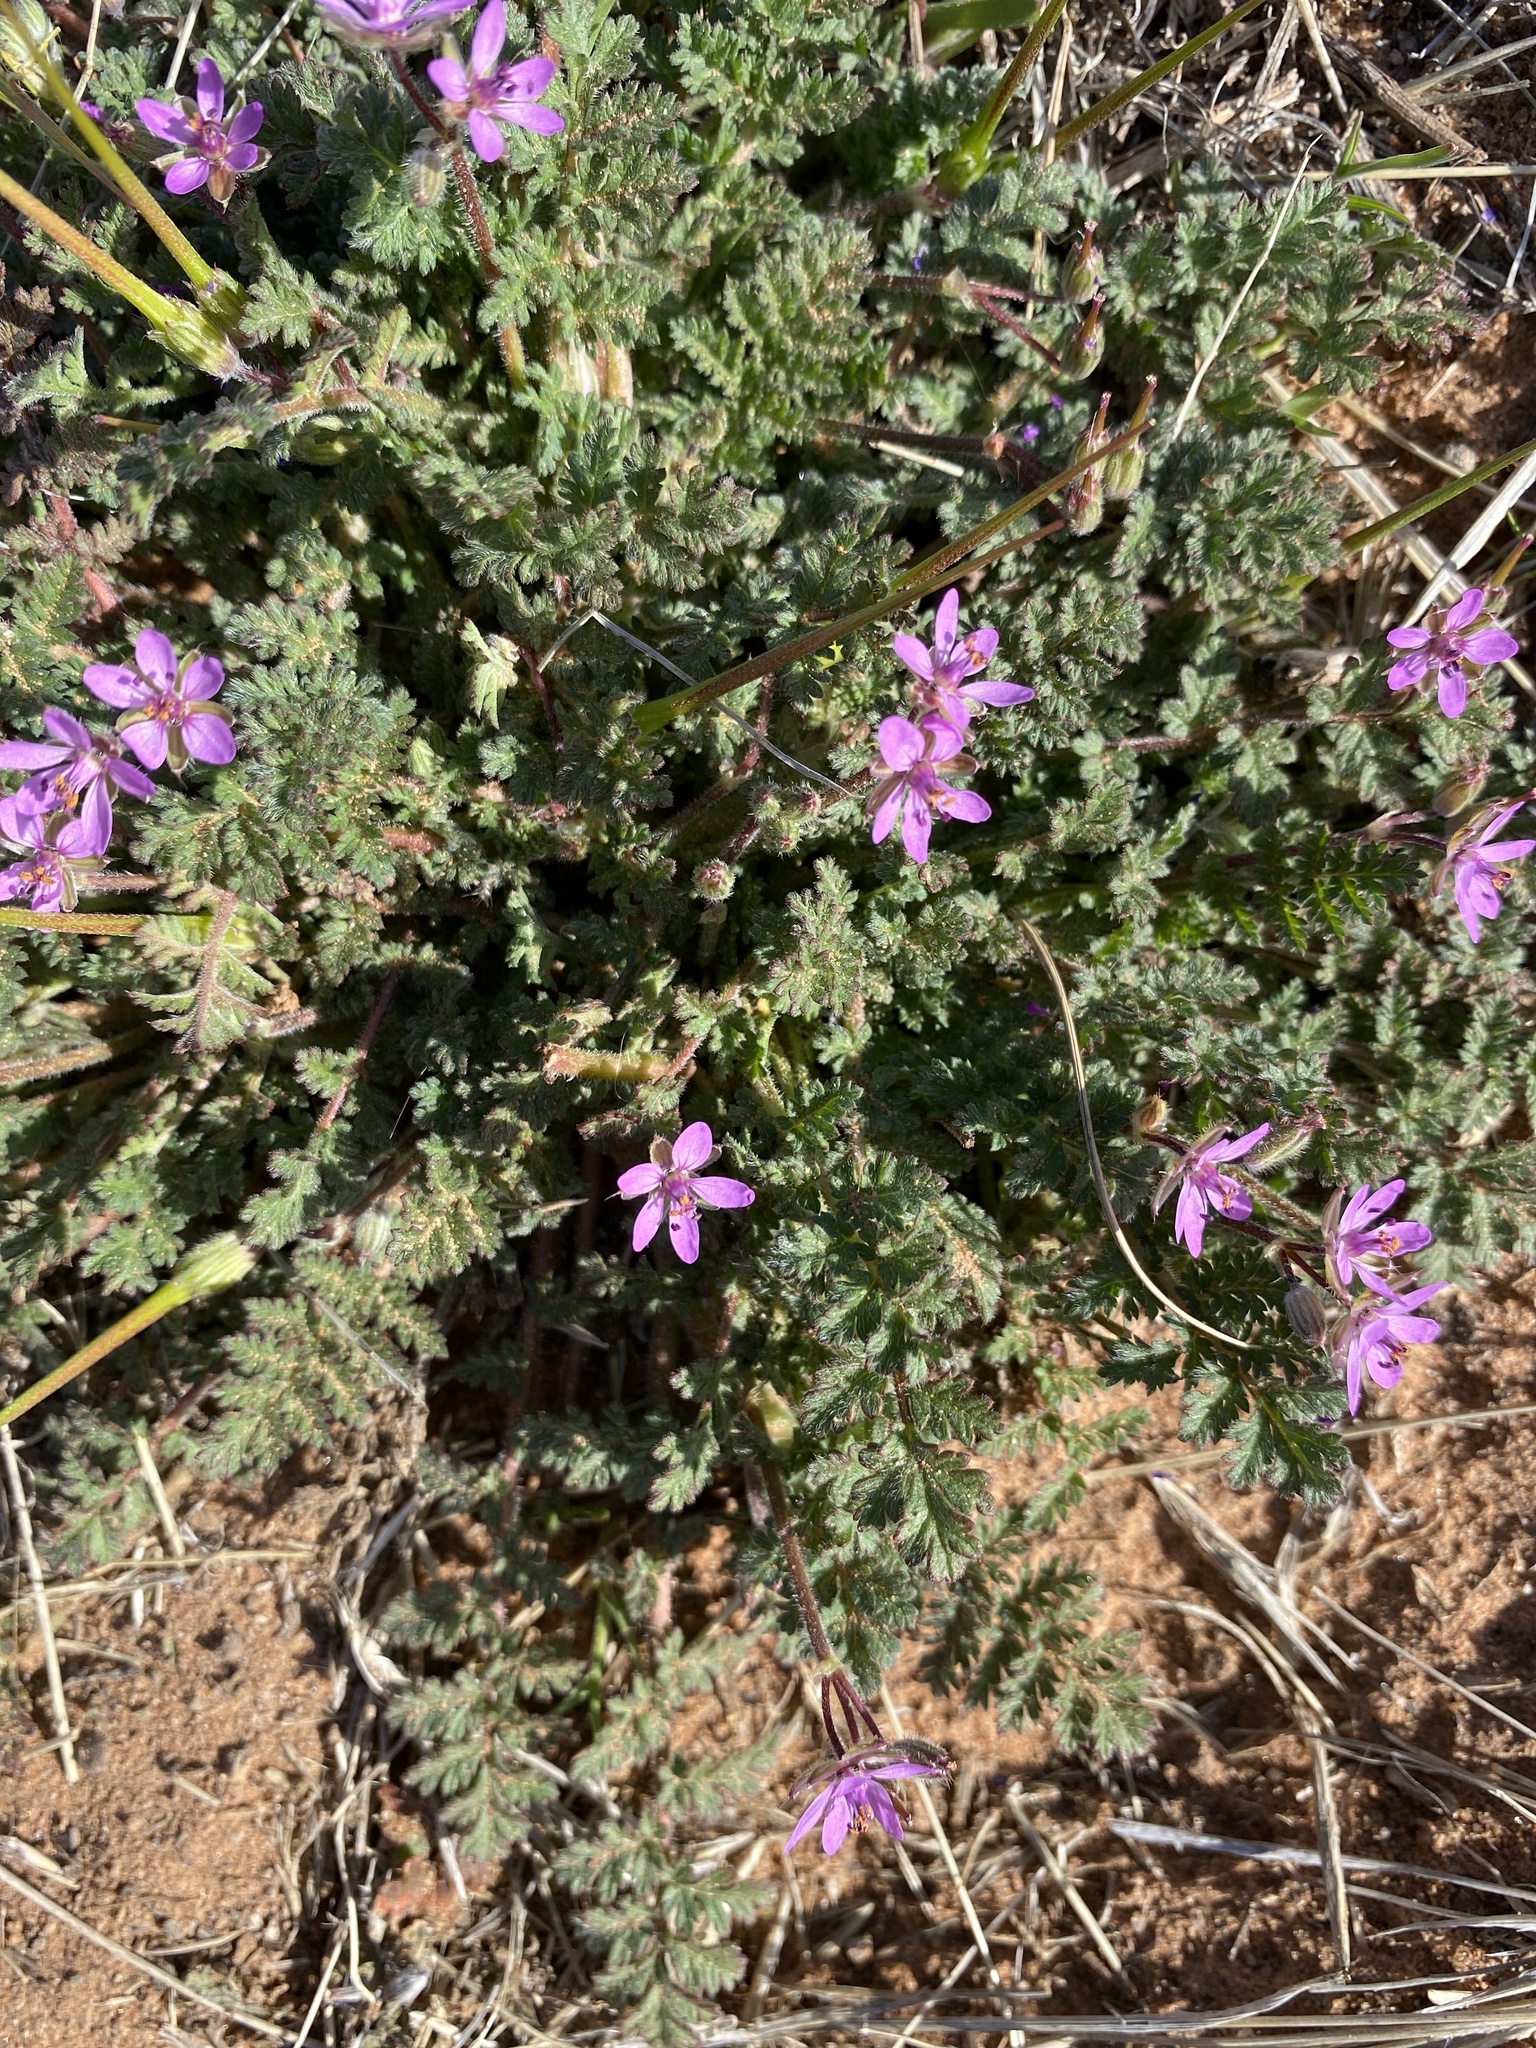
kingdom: Plantae
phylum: Tracheophyta
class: Magnoliopsida
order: Geraniales
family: Geraniaceae
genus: Erodium
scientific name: Erodium cicutarium
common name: Common stork's-bill
